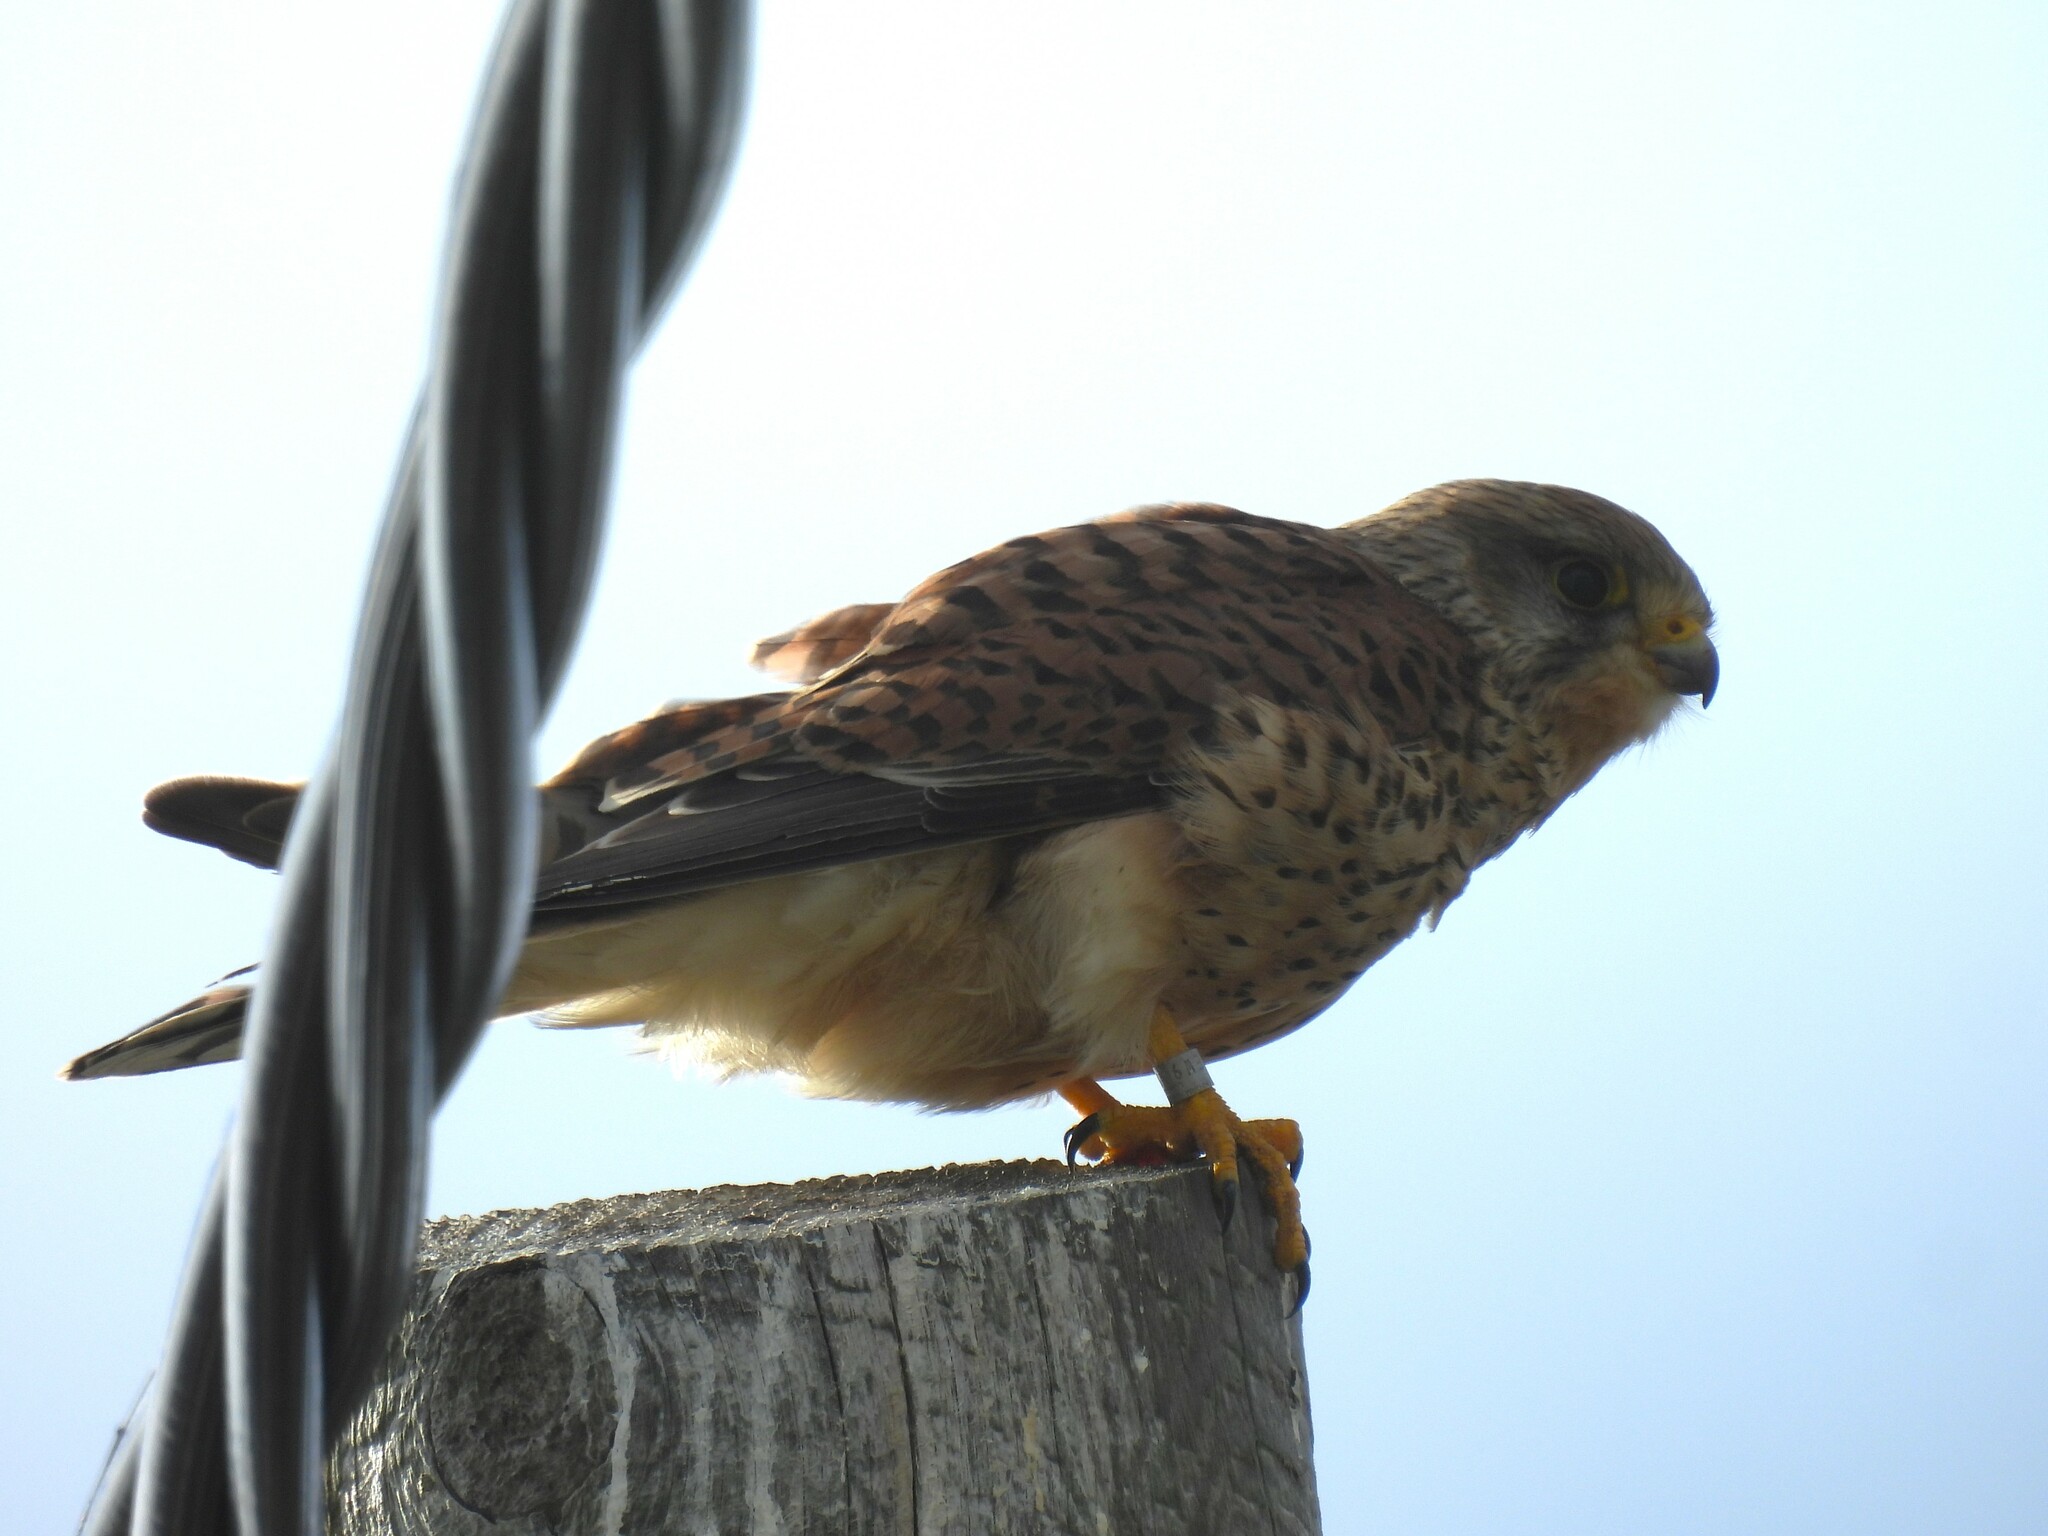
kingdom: Animalia
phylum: Chordata
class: Aves
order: Falconiformes
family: Falconidae
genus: Falco
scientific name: Falco tinnunculus
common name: Common kestrel
